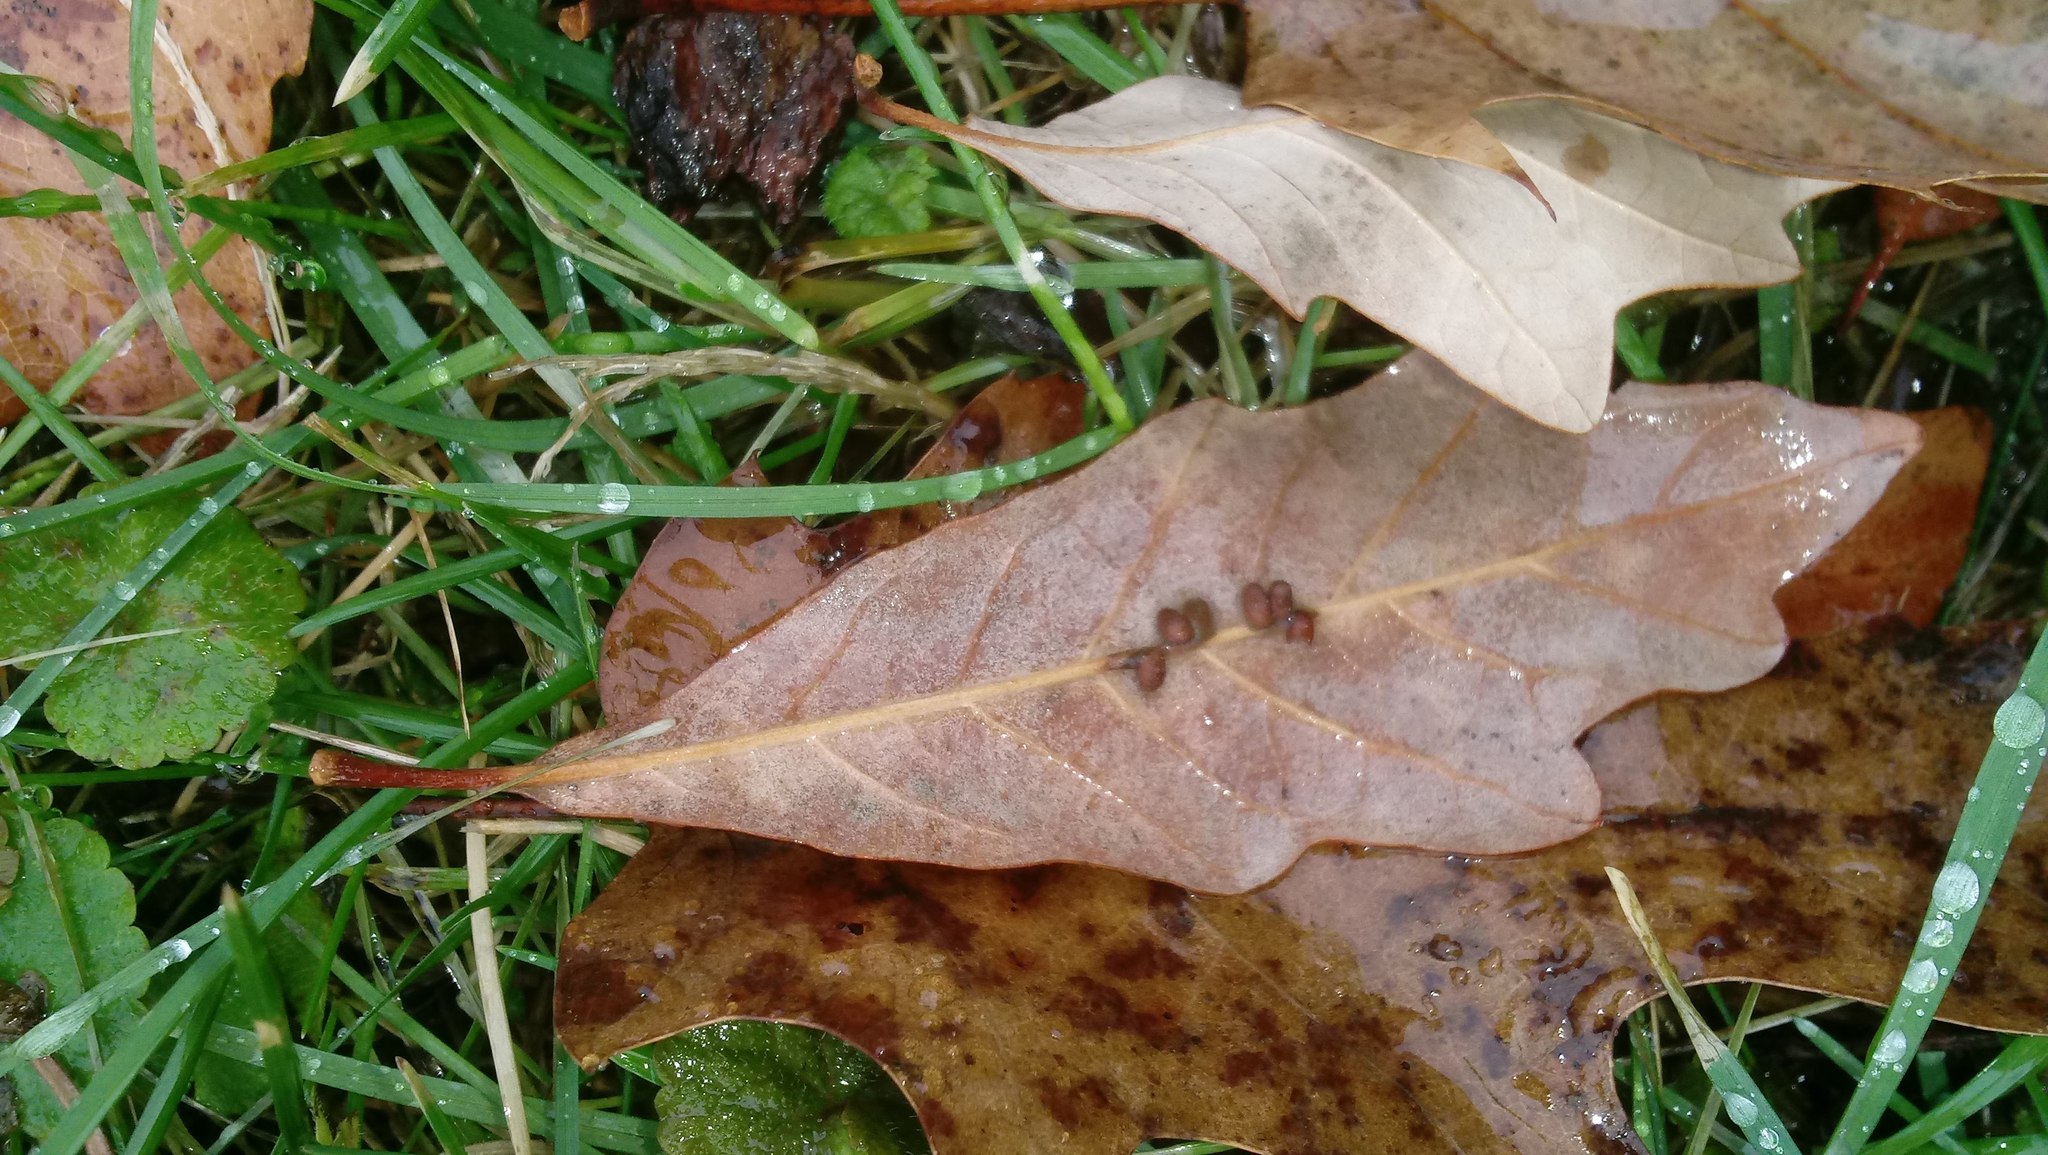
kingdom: Animalia
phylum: Arthropoda
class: Insecta
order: Hymenoptera
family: Cynipidae
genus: Andricus
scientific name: Andricus Druon ignotum
